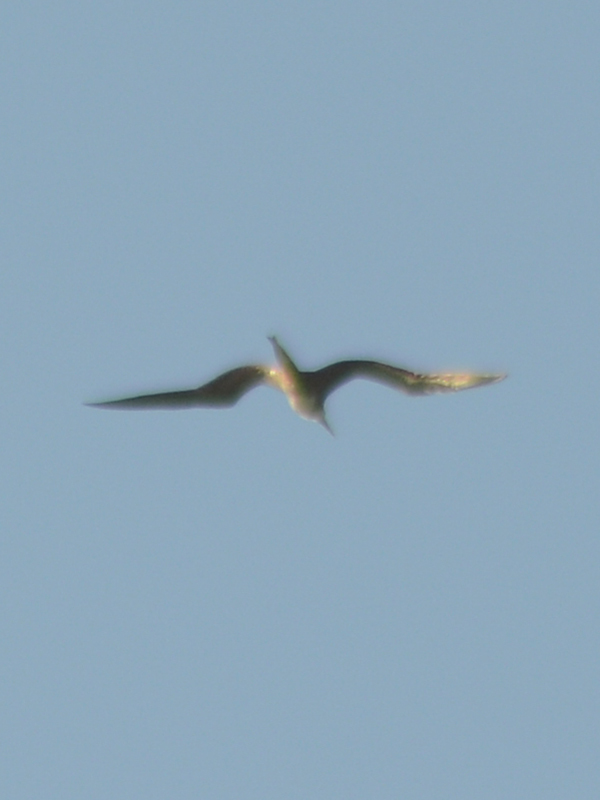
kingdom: Animalia
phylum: Chordata
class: Aves
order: Suliformes
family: Fregatidae
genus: Fregata
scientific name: Fregata magnificens
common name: Magnificent frigatebird
